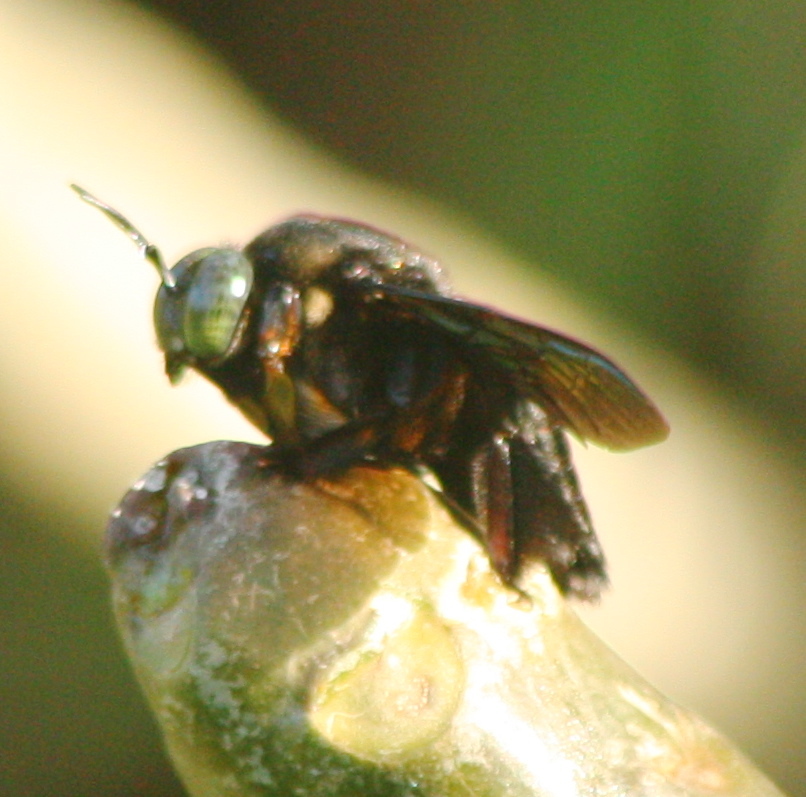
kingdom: Animalia
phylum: Arthropoda
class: Insecta
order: Hymenoptera
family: Apidae
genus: Xylocopa
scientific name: Xylocopa latipes
